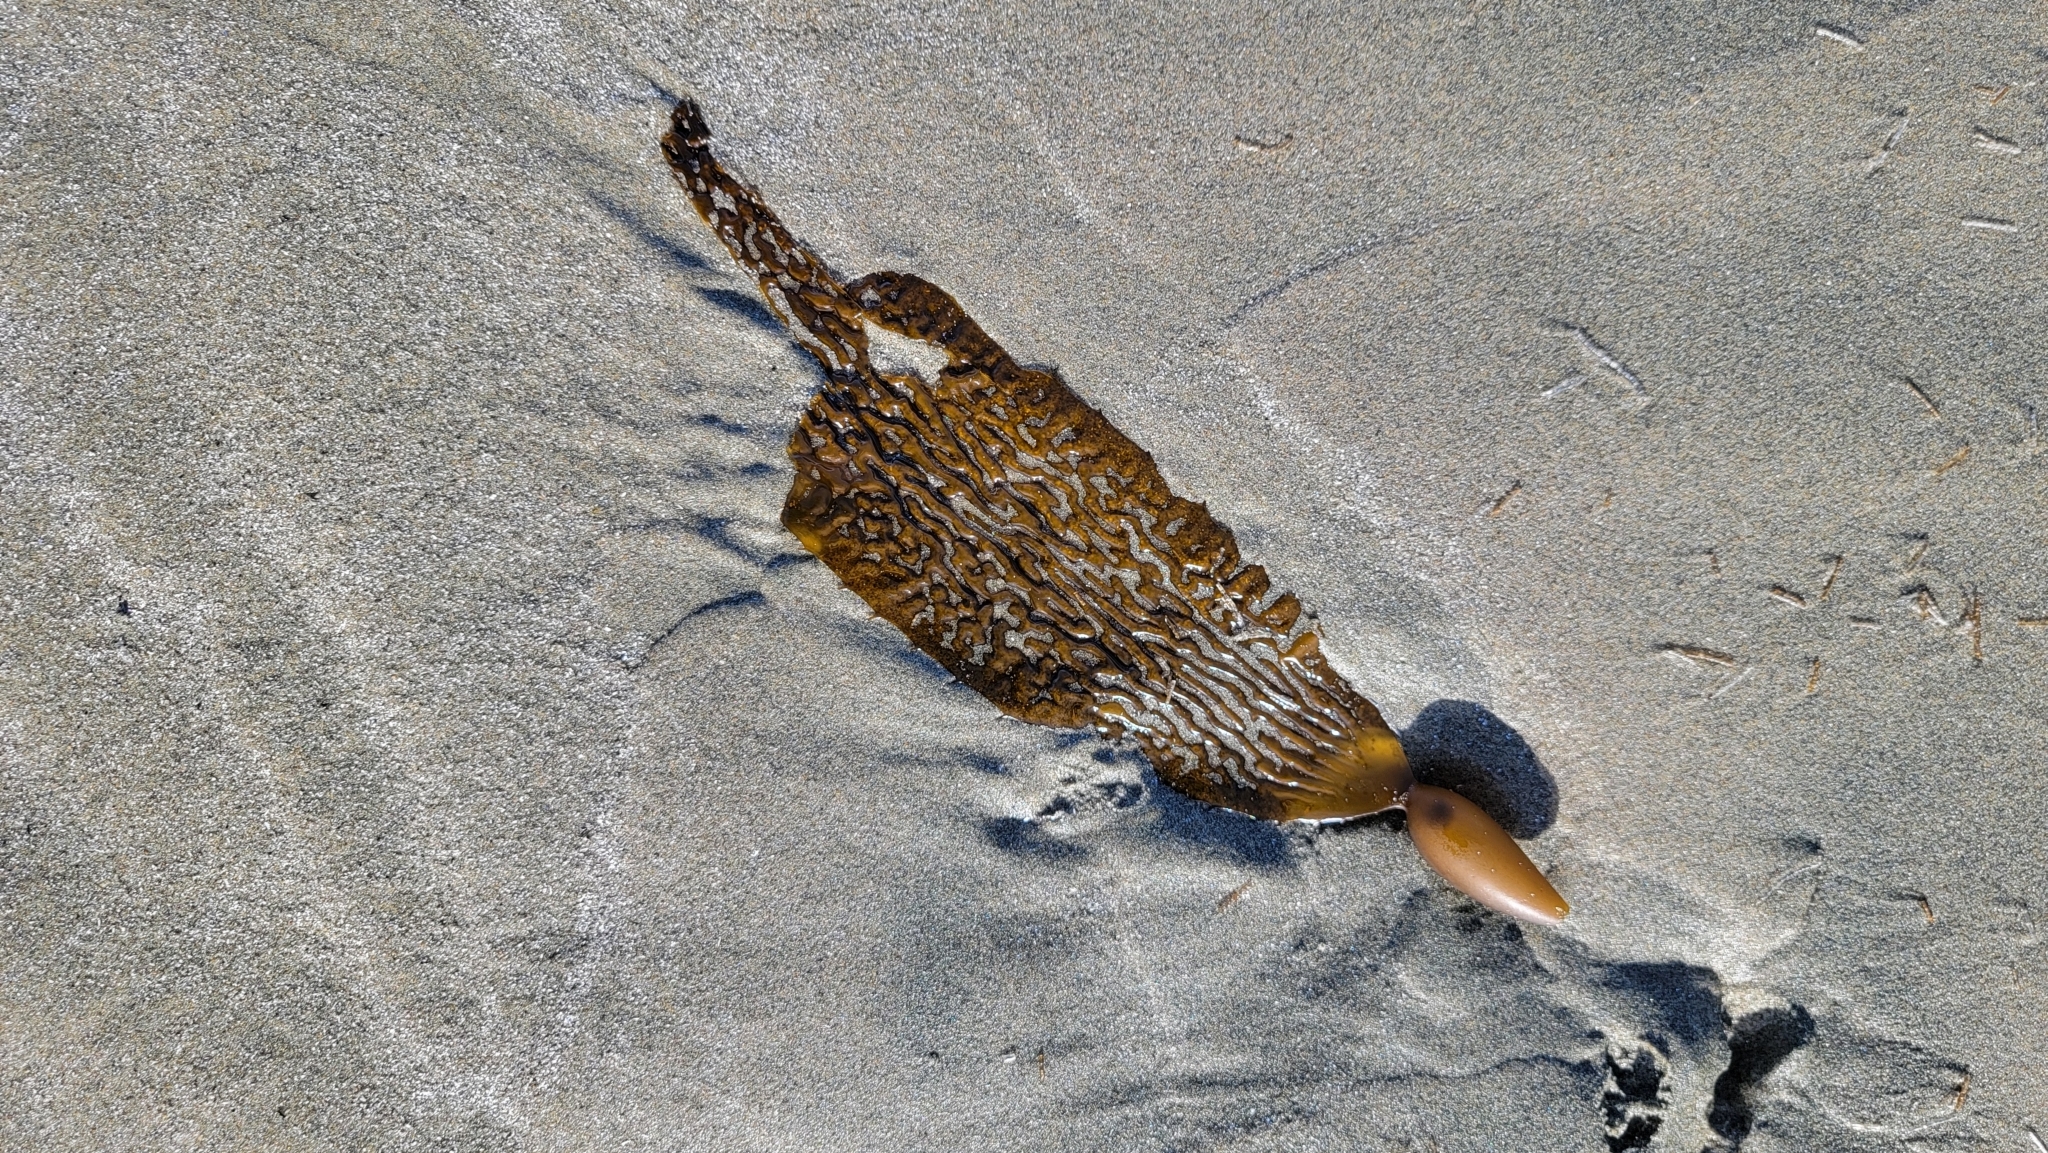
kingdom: Chromista
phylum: Ochrophyta
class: Phaeophyceae
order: Laminariales
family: Laminariaceae
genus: Macrocystis
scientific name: Macrocystis pyrifera
